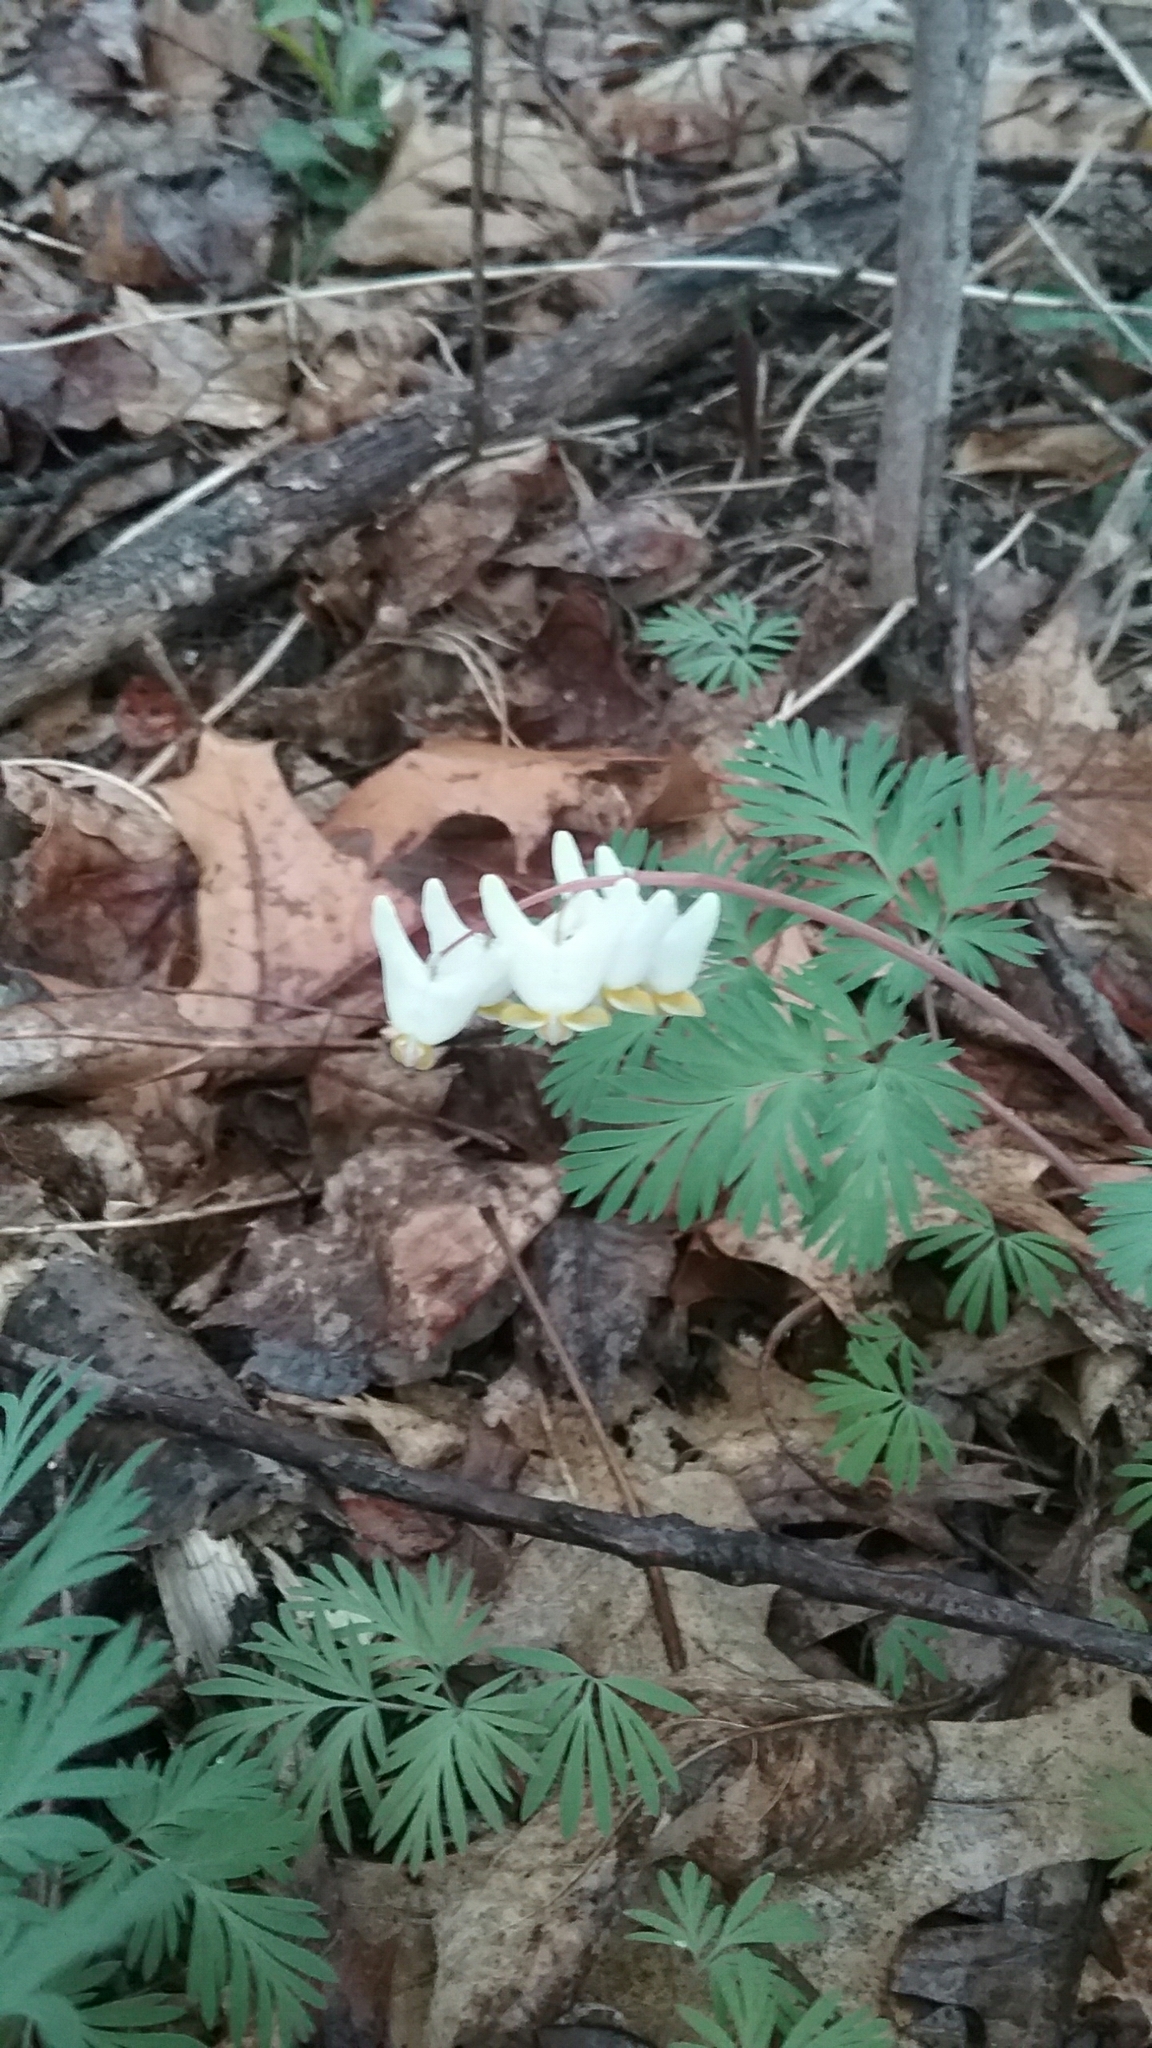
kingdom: Plantae
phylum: Tracheophyta
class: Magnoliopsida
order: Ranunculales
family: Papaveraceae
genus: Dicentra
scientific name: Dicentra cucullaria
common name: Dutchman's breeches
